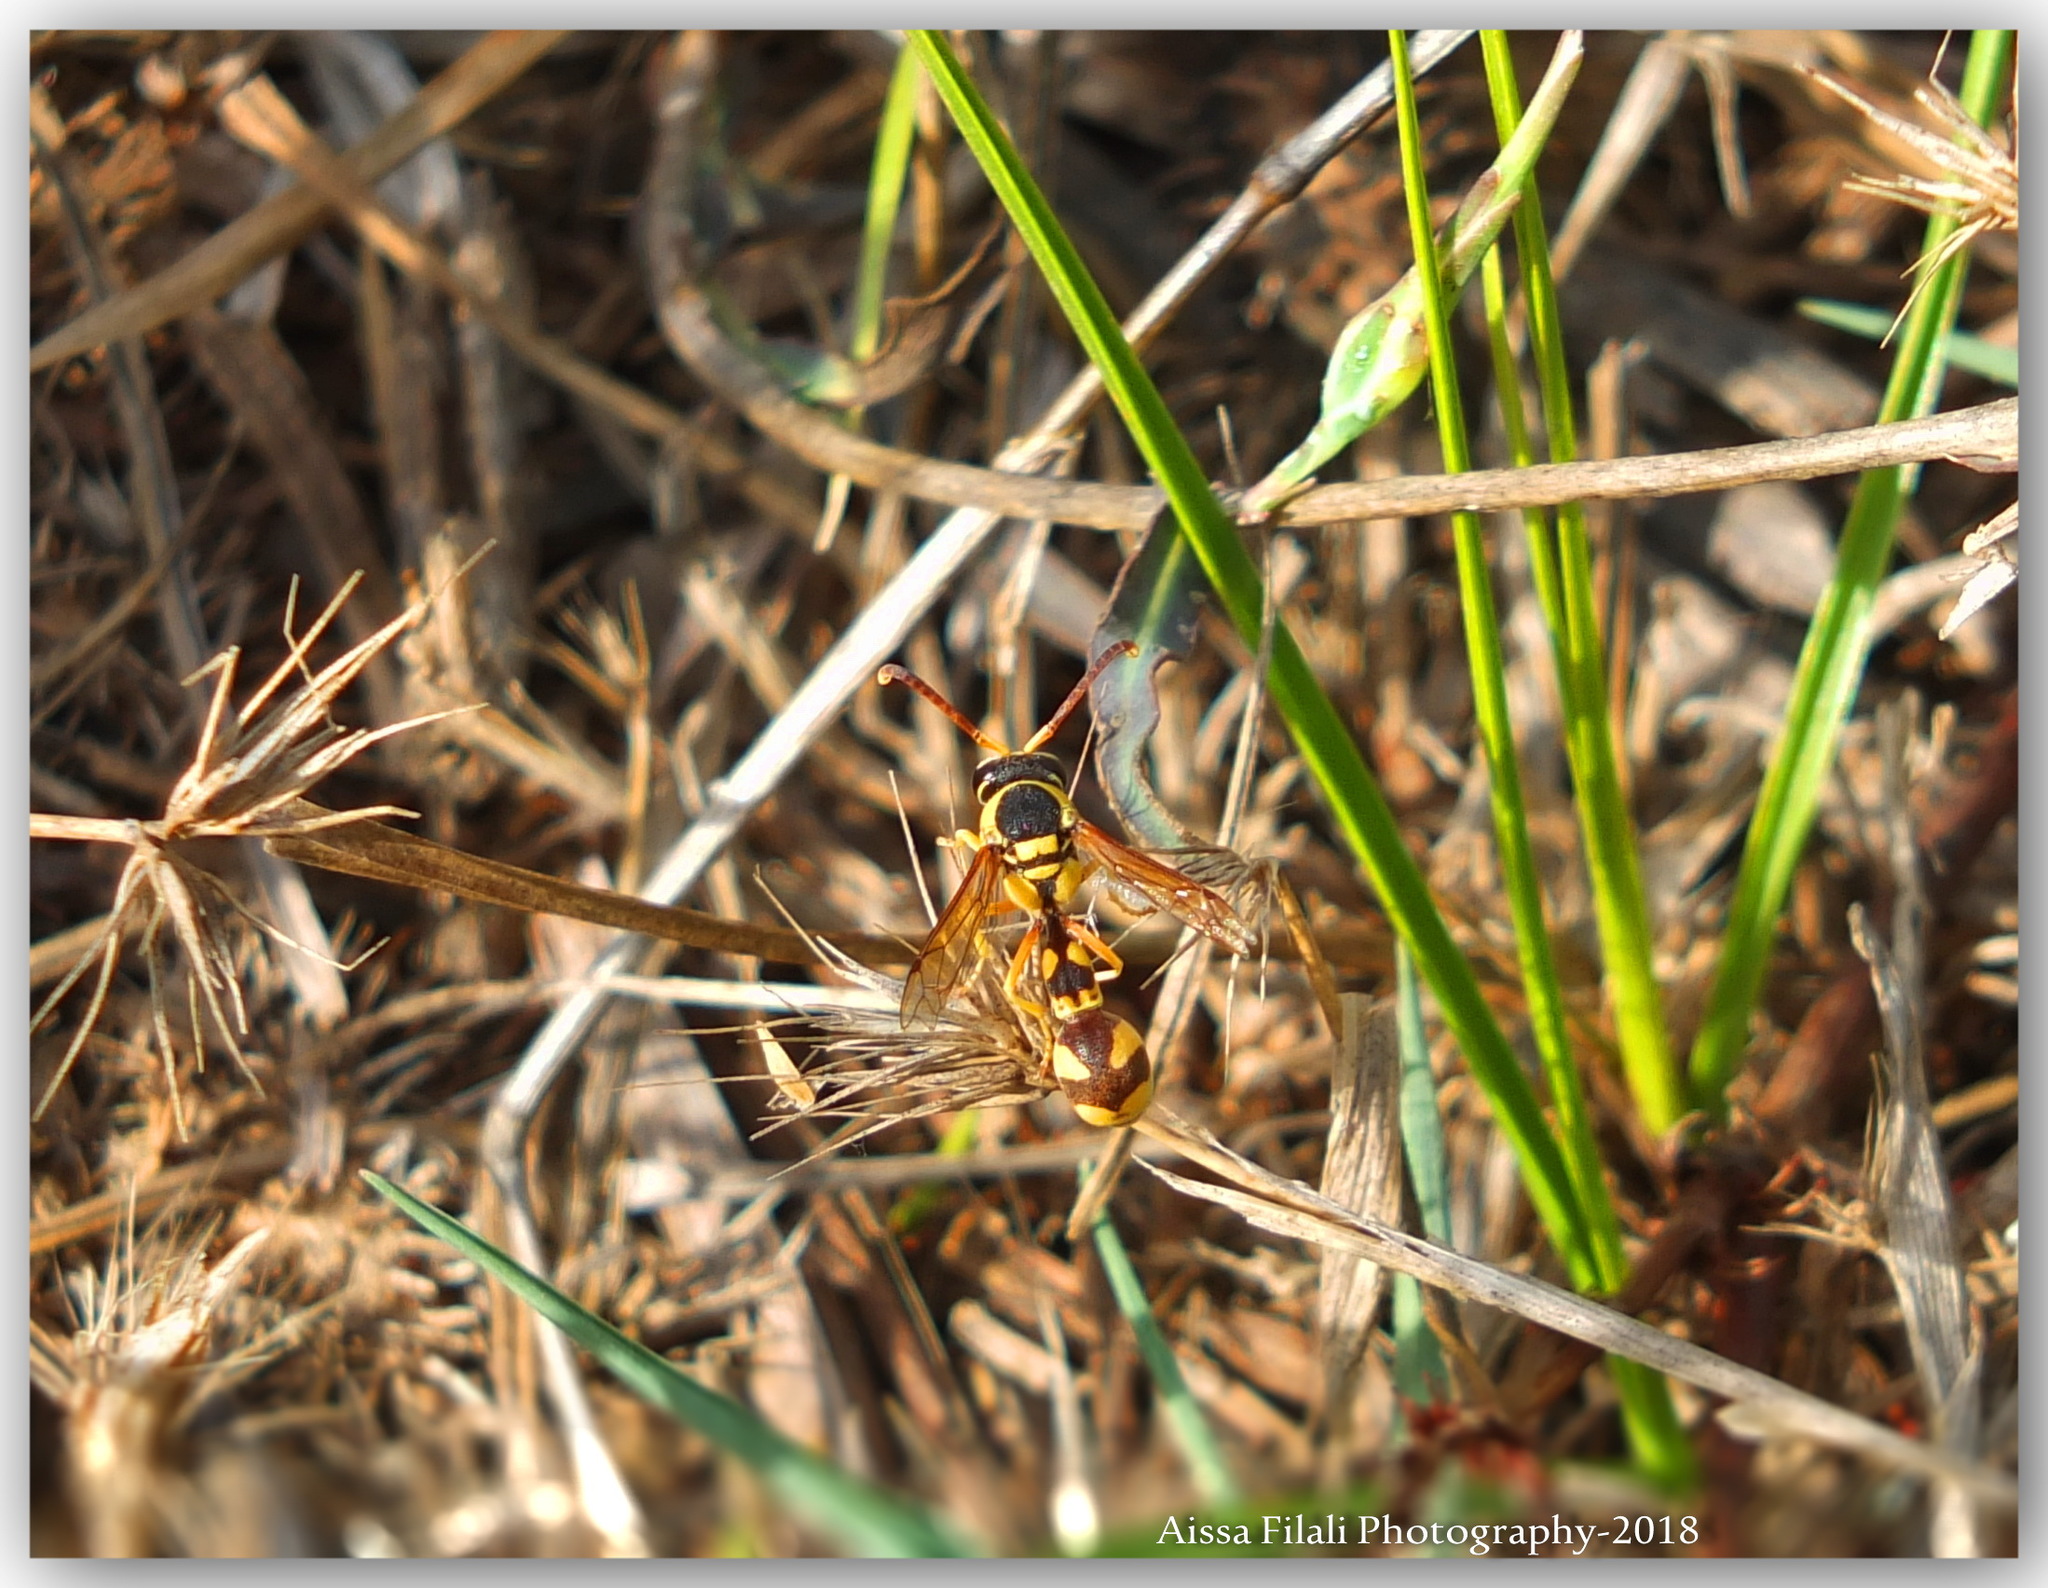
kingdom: Animalia
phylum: Arthropoda
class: Insecta
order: Hymenoptera
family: Vespidae
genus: Eumenes
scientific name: Eumenes cyrenaicus
